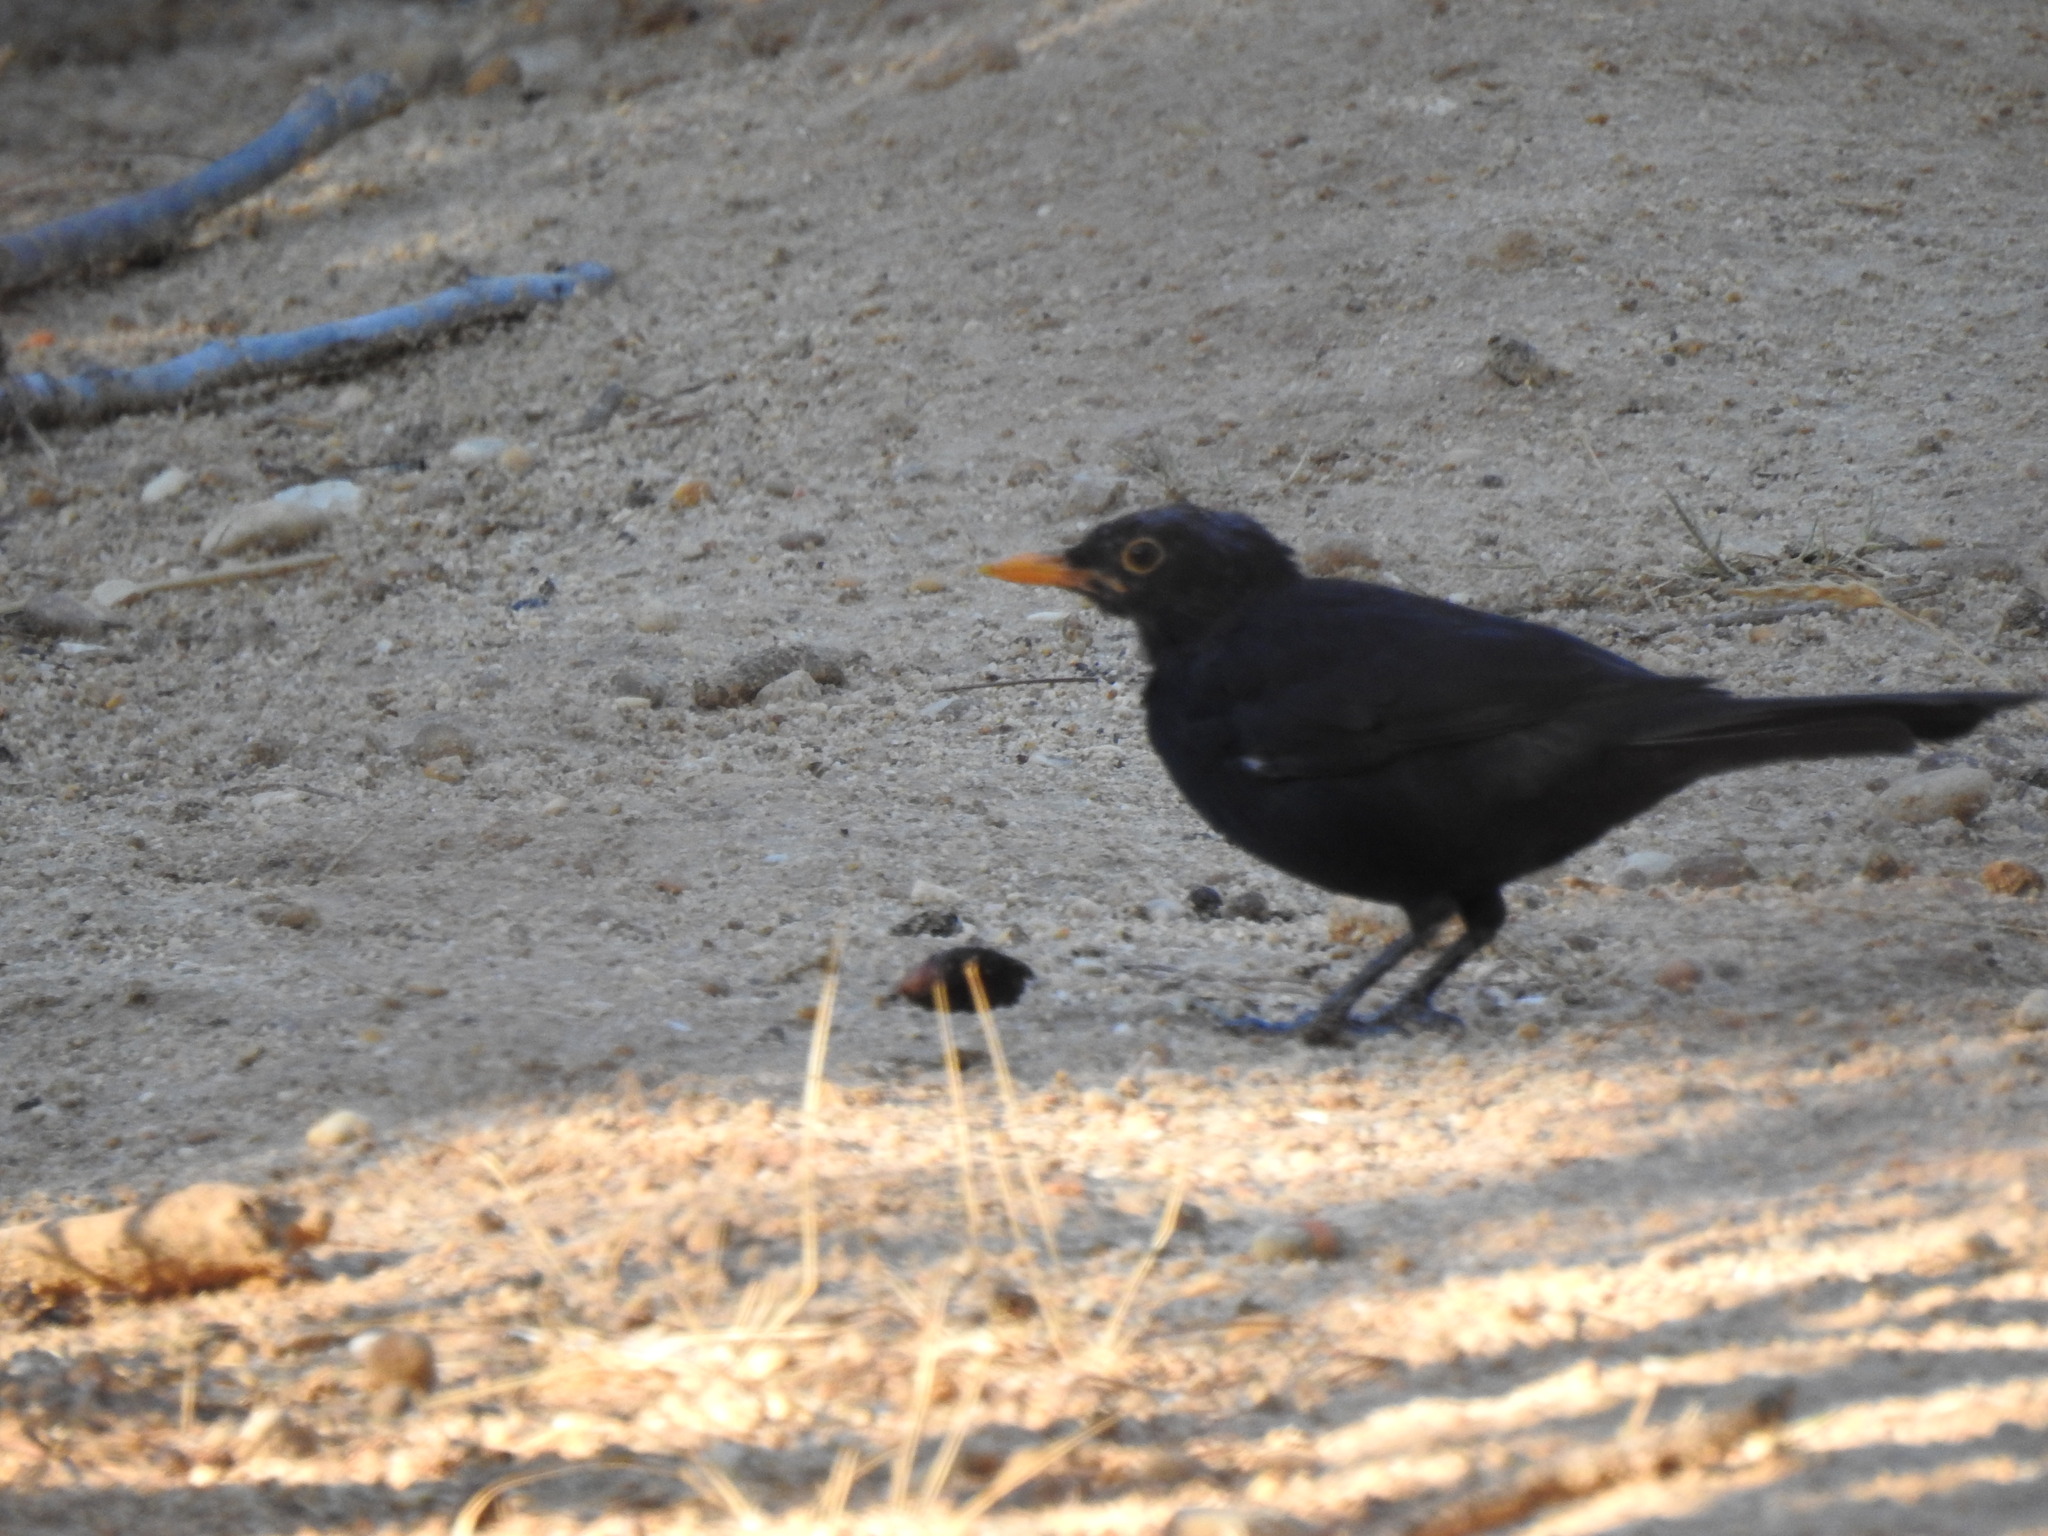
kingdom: Animalia
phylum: Chordata
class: Aves
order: Passeriformes
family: Turdidae
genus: Turdus
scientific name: Turdus merula
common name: Common blackbird
